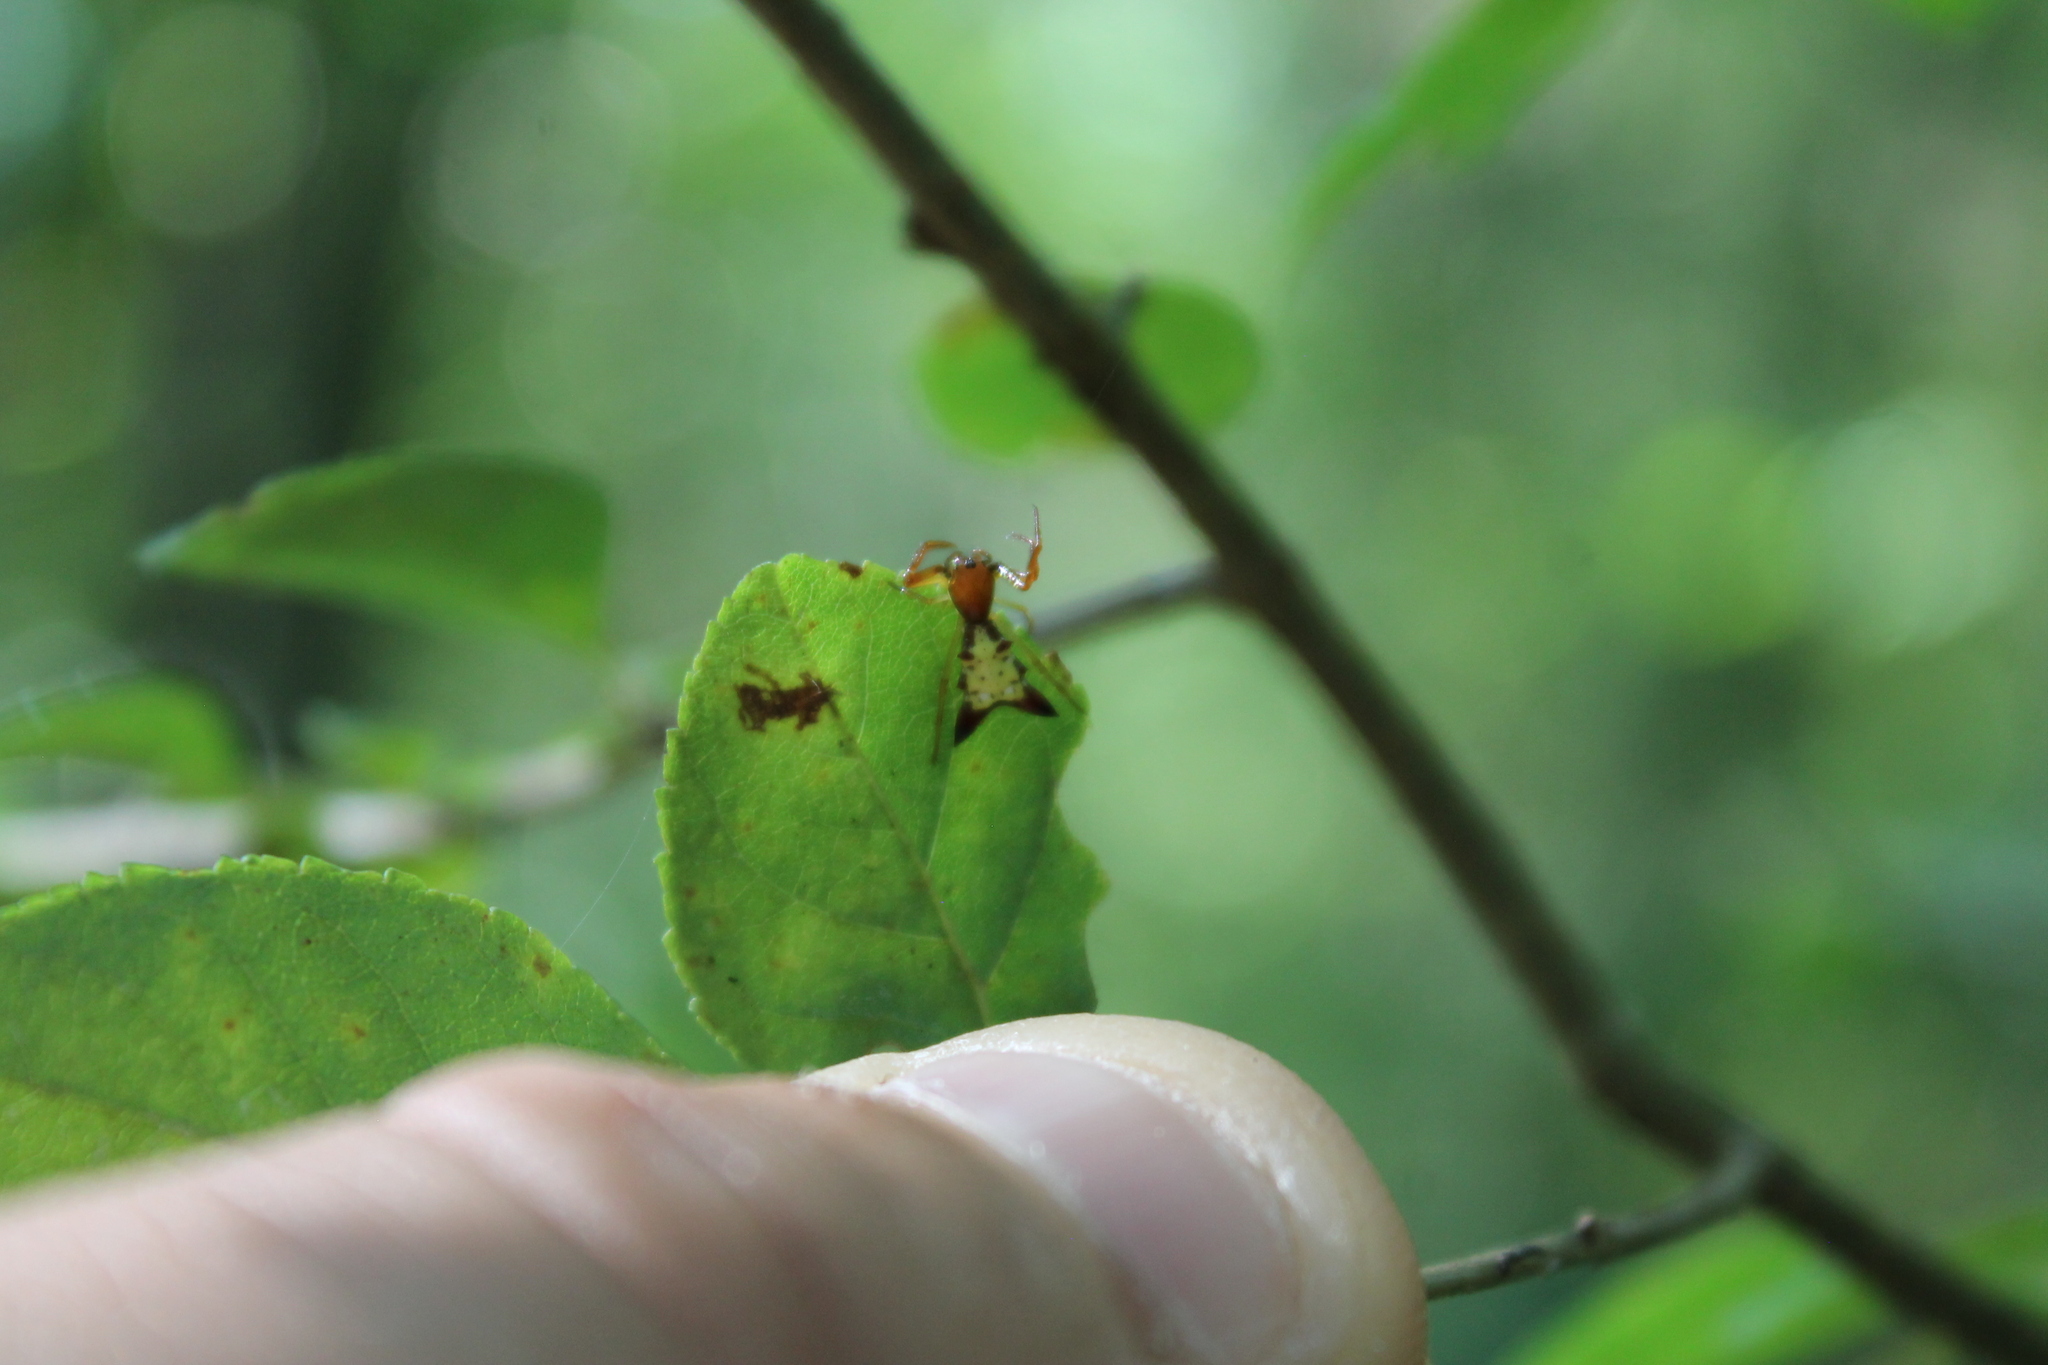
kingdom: Animalia
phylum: Arthropoda
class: Arachnida
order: Araneae
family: Araneidae
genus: Micrathena
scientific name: Micrathena sagittata
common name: Orb weavers
